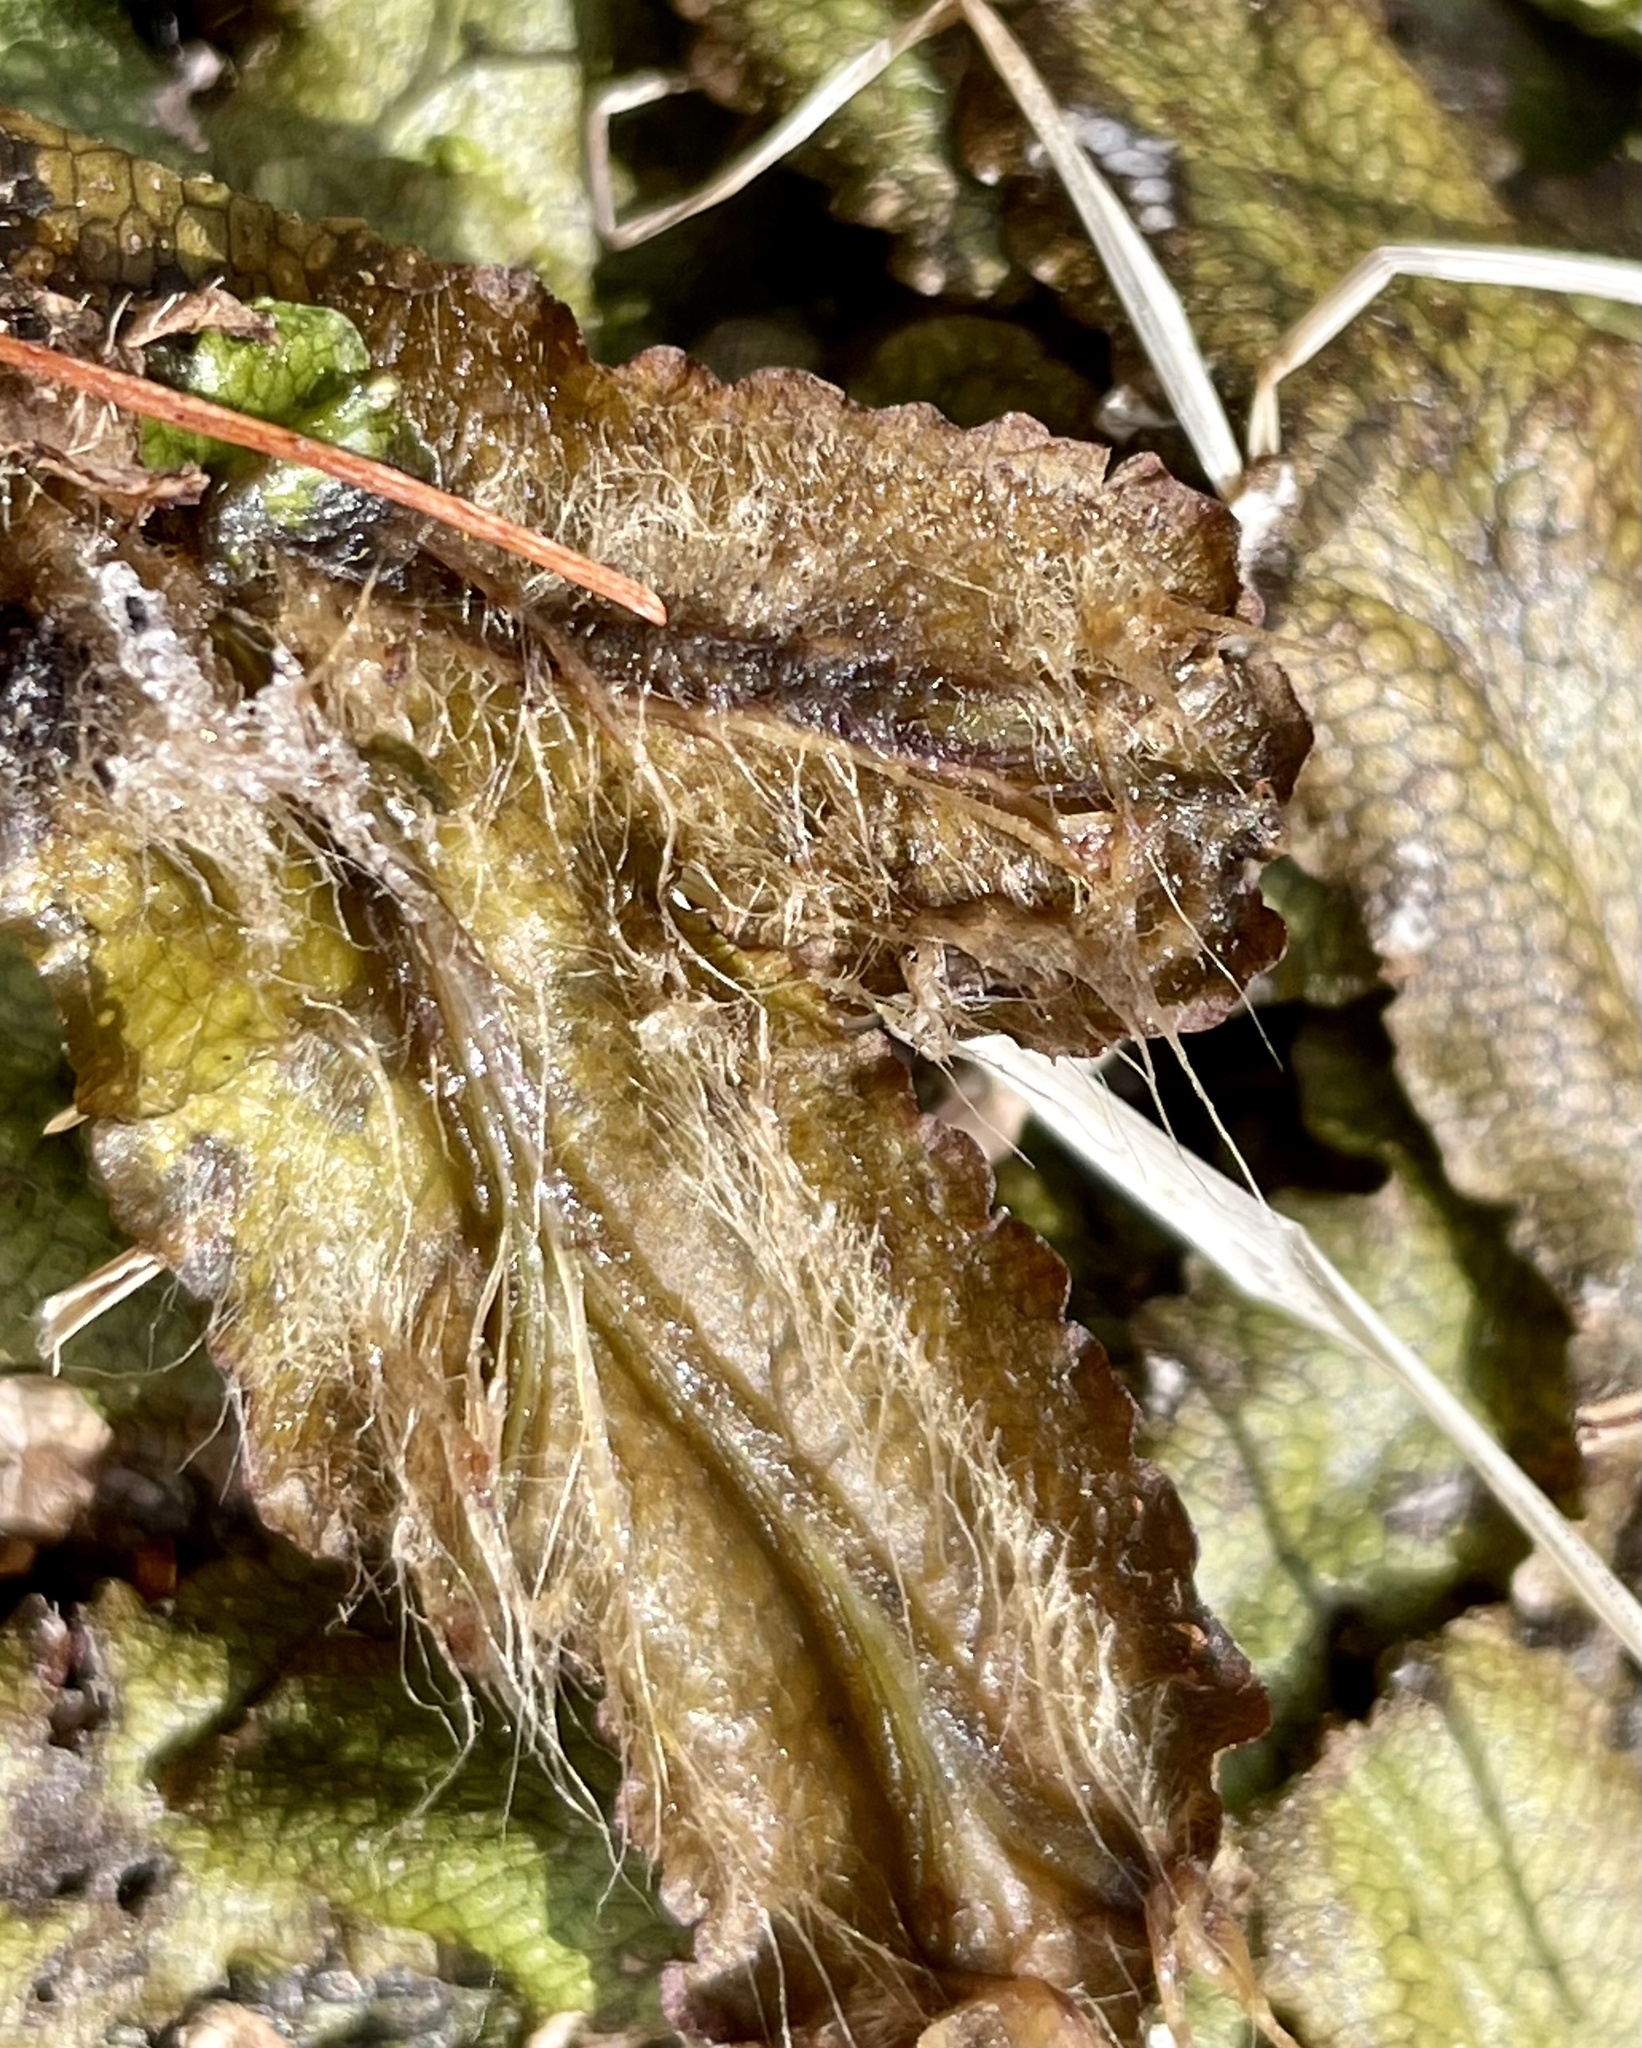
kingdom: Plantae
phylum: Marchantiophyta
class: Marchantiopsida
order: Marchantiales
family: Conocephalaceae
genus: Conocephalum
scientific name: Conocephalum salebrosum
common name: Cat-tongue liverwort
